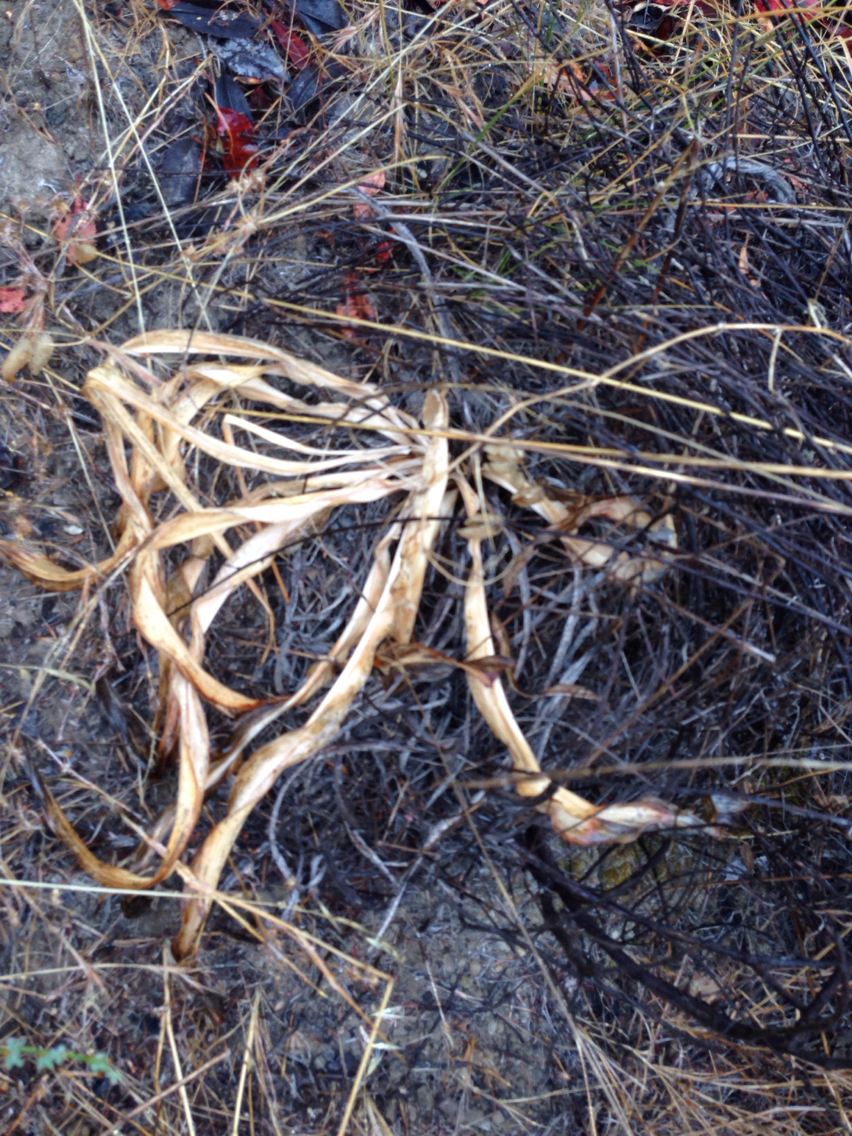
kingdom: Plantae
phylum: Tracheophyta
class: Liliopsida
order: Asparagales
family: Asparagaceae
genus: Chlorogalum
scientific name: Chlorogalum pomeridianum
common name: Amole
